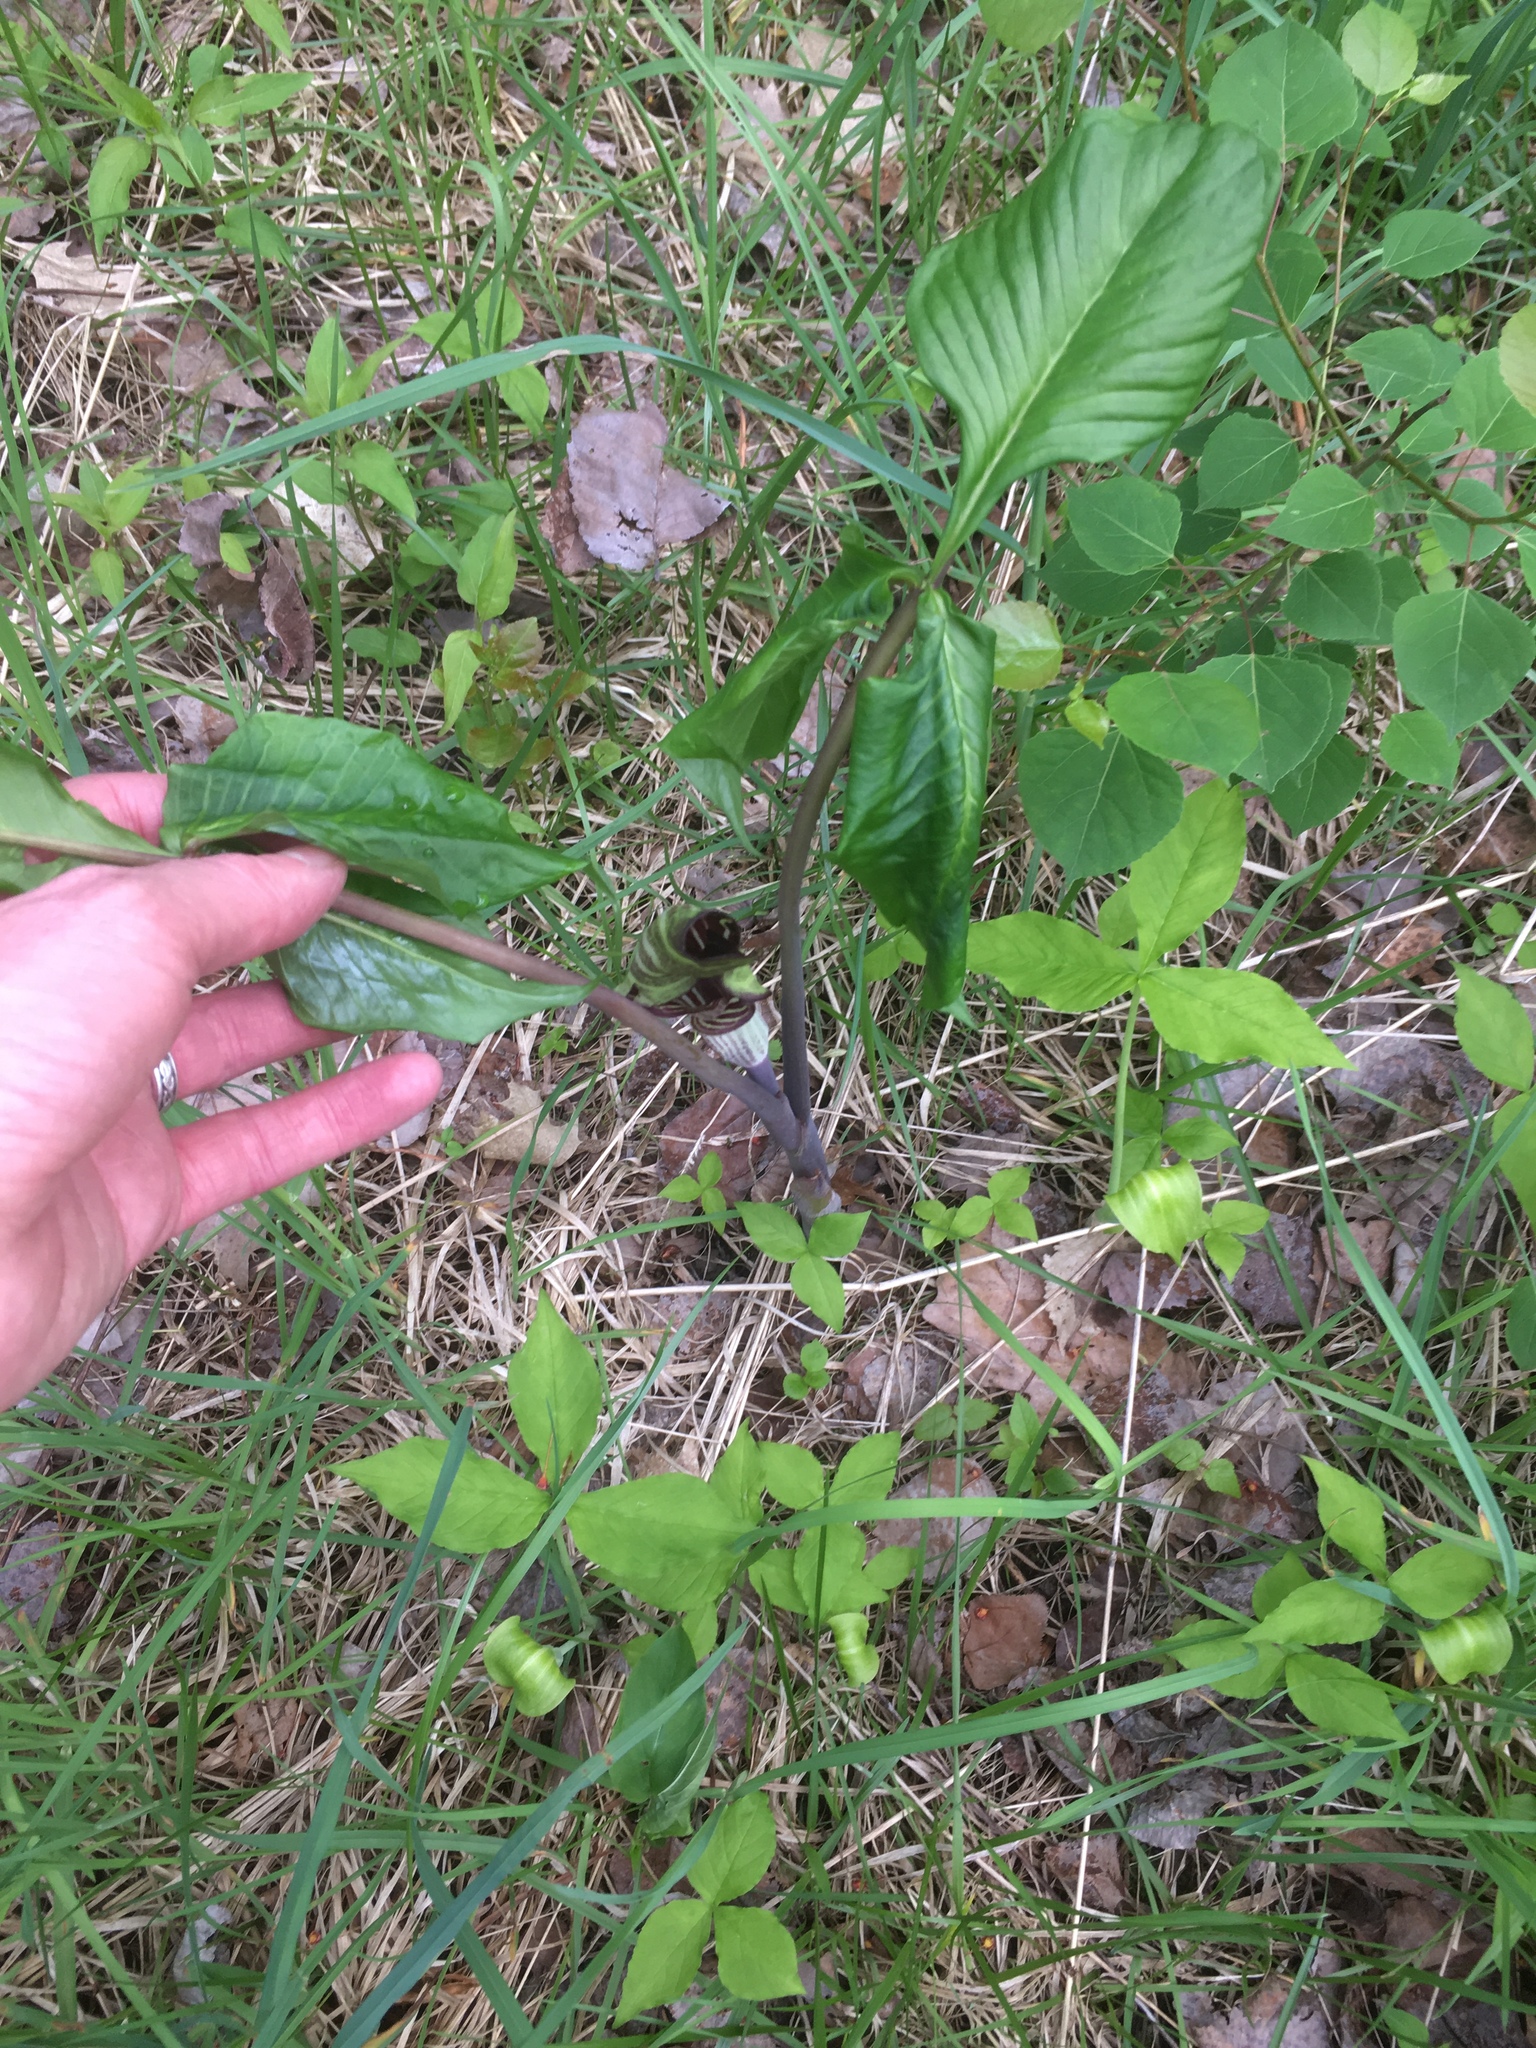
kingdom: Plantae
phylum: Tracheophyta
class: Liliopsida
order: Alismatales
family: Araceae
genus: Arisaema
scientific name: Arisaema triphyllum
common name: Jack-in-the-pulpit
